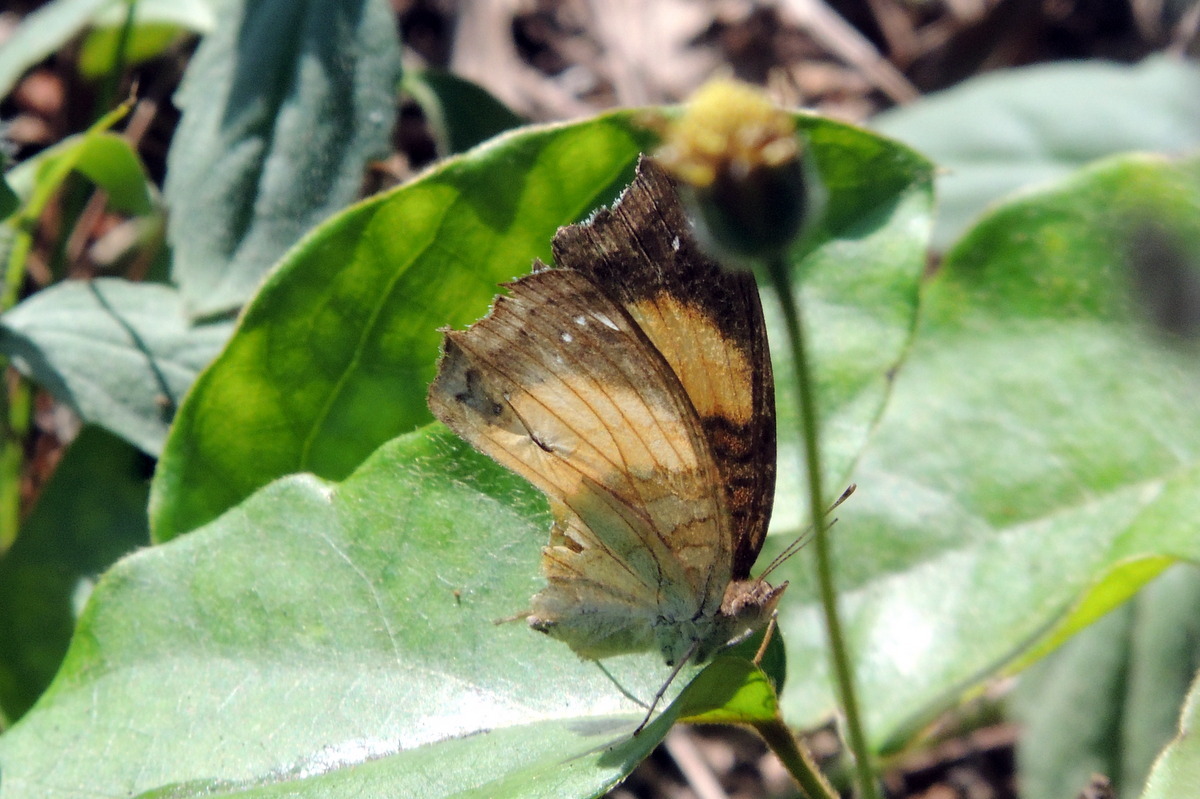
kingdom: Animalia
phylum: Arthropoda
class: Insecta
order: Lepidoptera
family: Nymphalidae
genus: Junonia
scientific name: Junonia terea
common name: Soldier pansy
